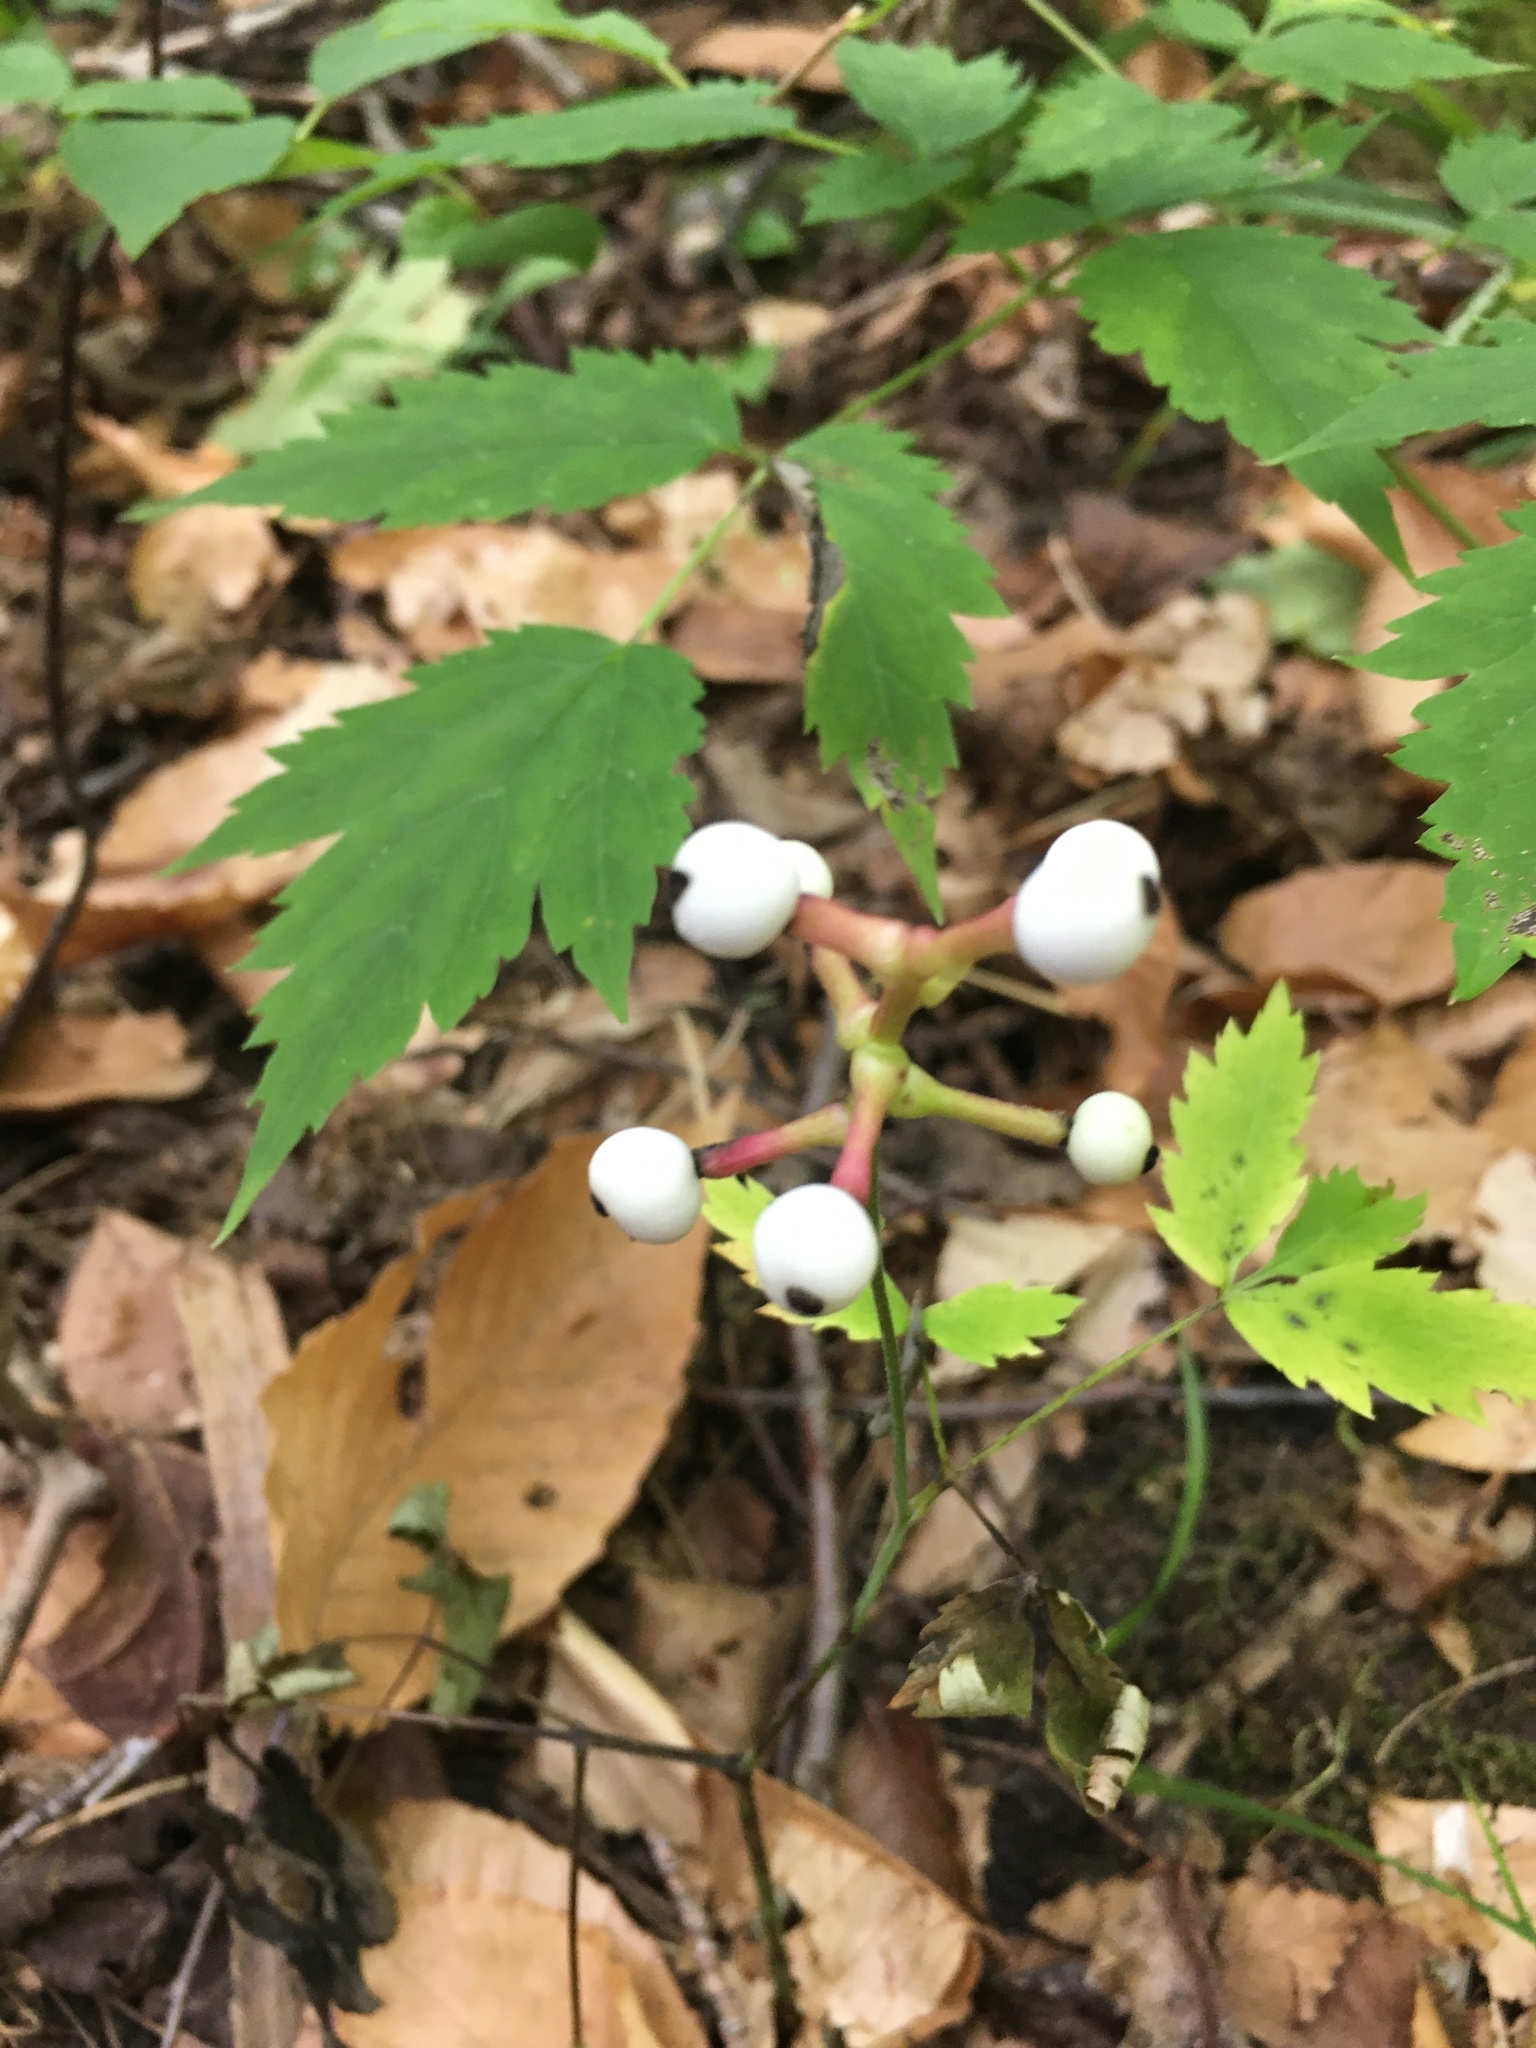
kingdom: Plantae
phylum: Tracheophyta
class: Magnoliopsida
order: Ranunculales
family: Ranunculaceae
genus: Actaea
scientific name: Actaea pachypoda
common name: Doll's-eyes
